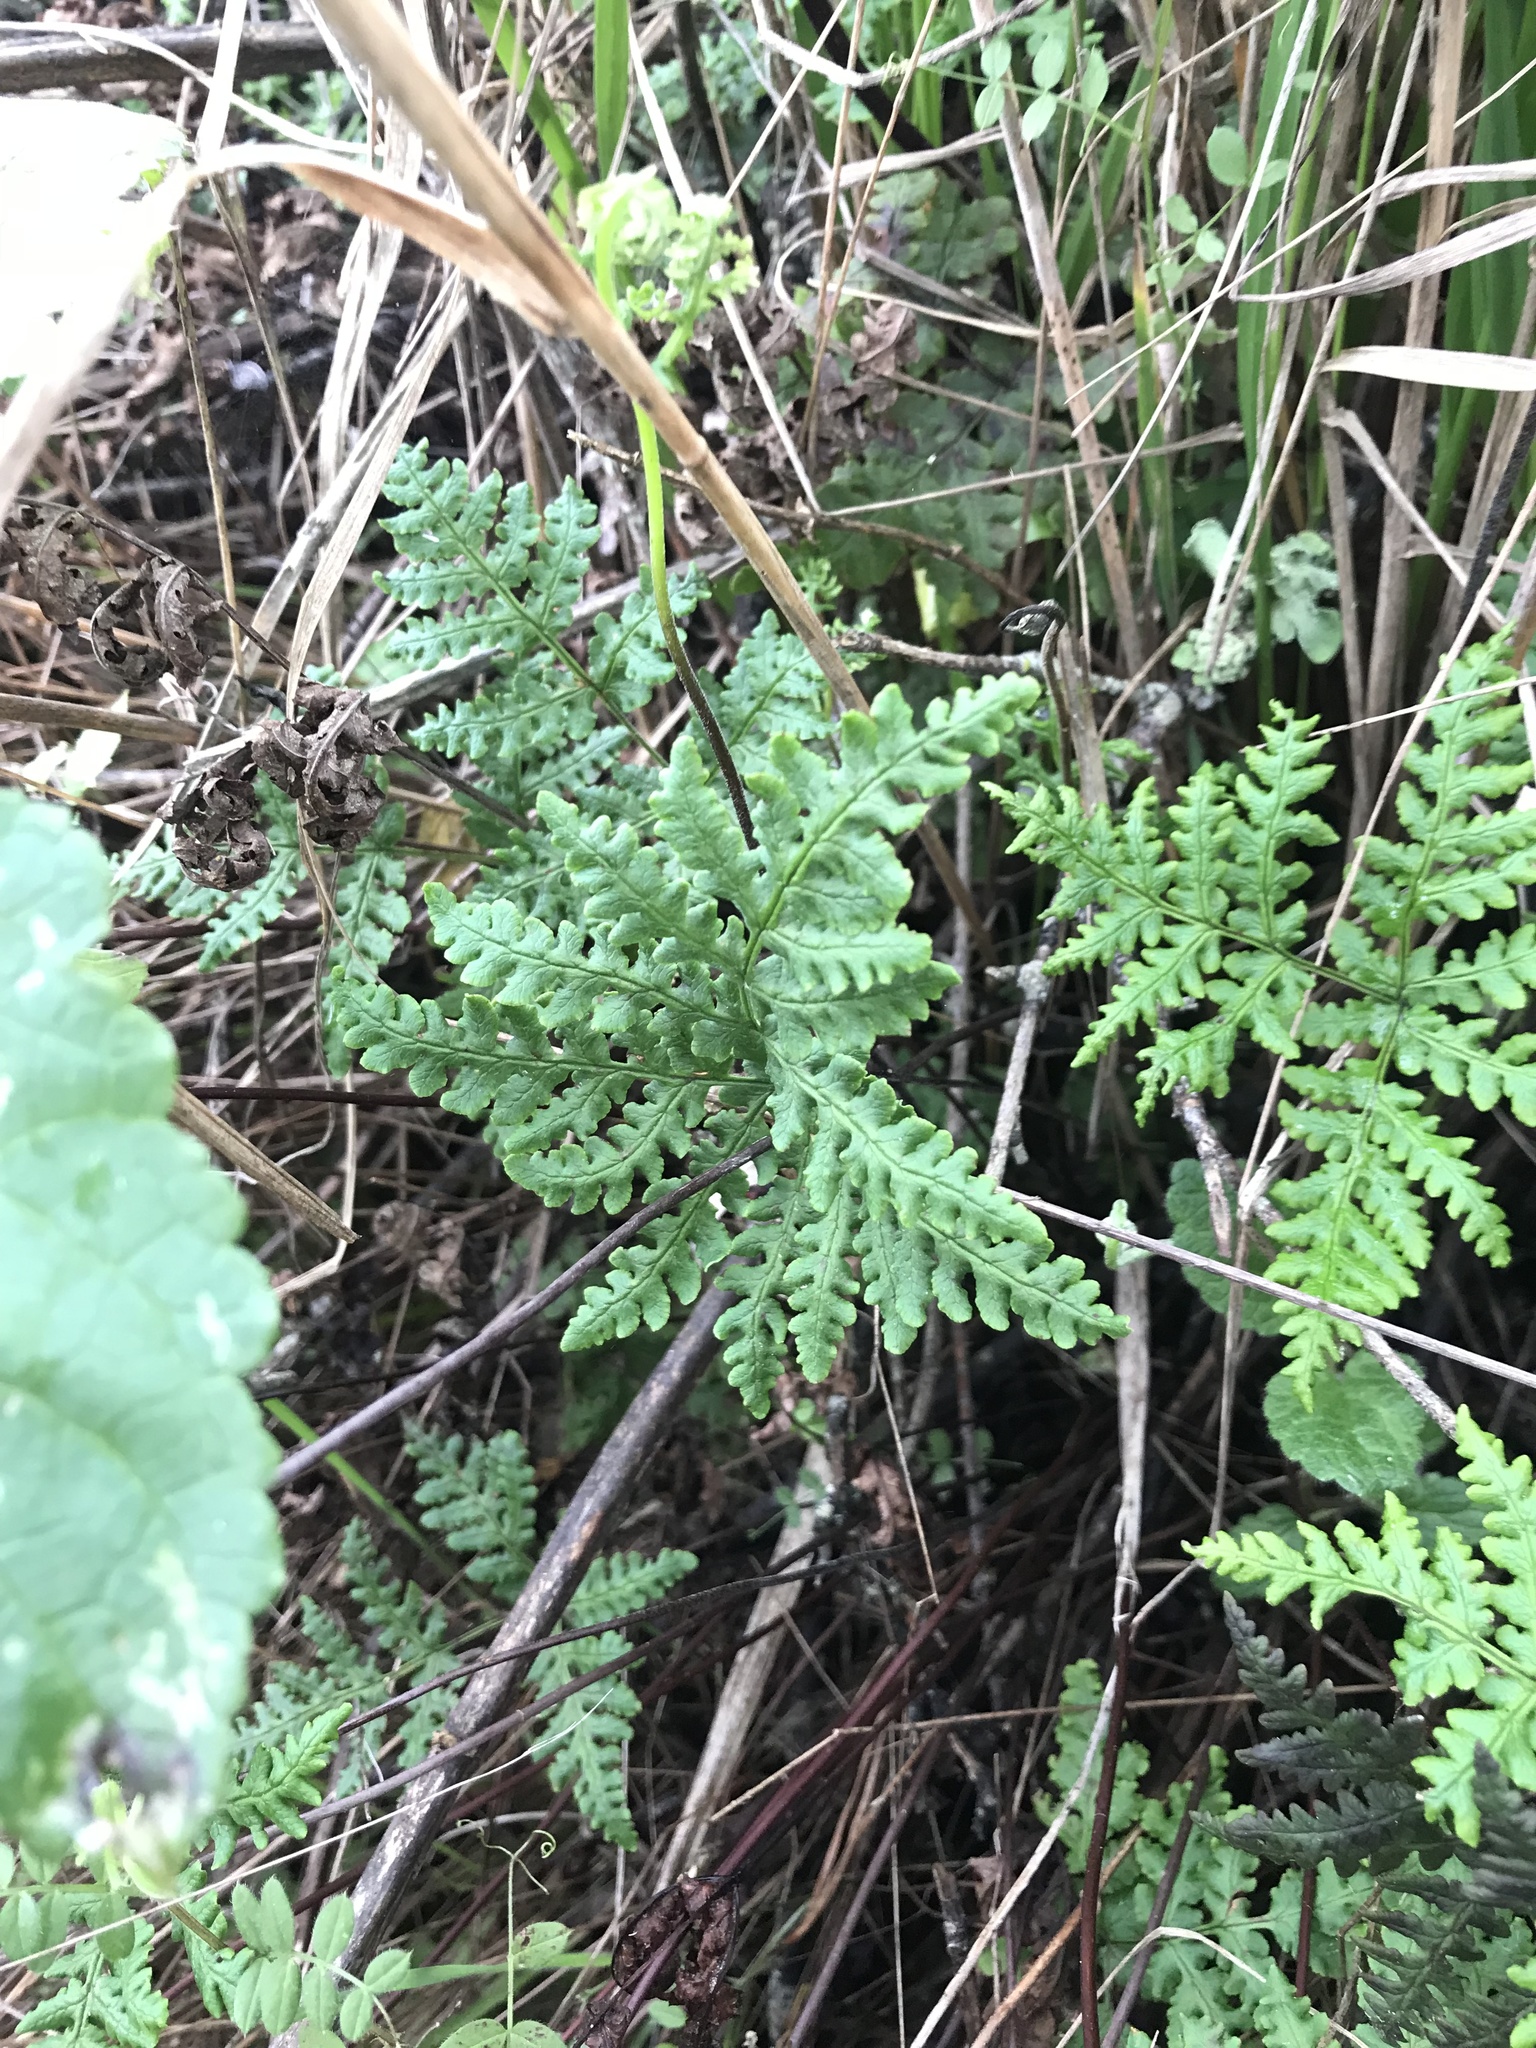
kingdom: Plantae
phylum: Tracheophyta
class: Polypodiopsida
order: Polypodiales
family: Pteridaceae
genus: Pentagramma
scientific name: Pentagramma triangularis
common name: Gold fern
